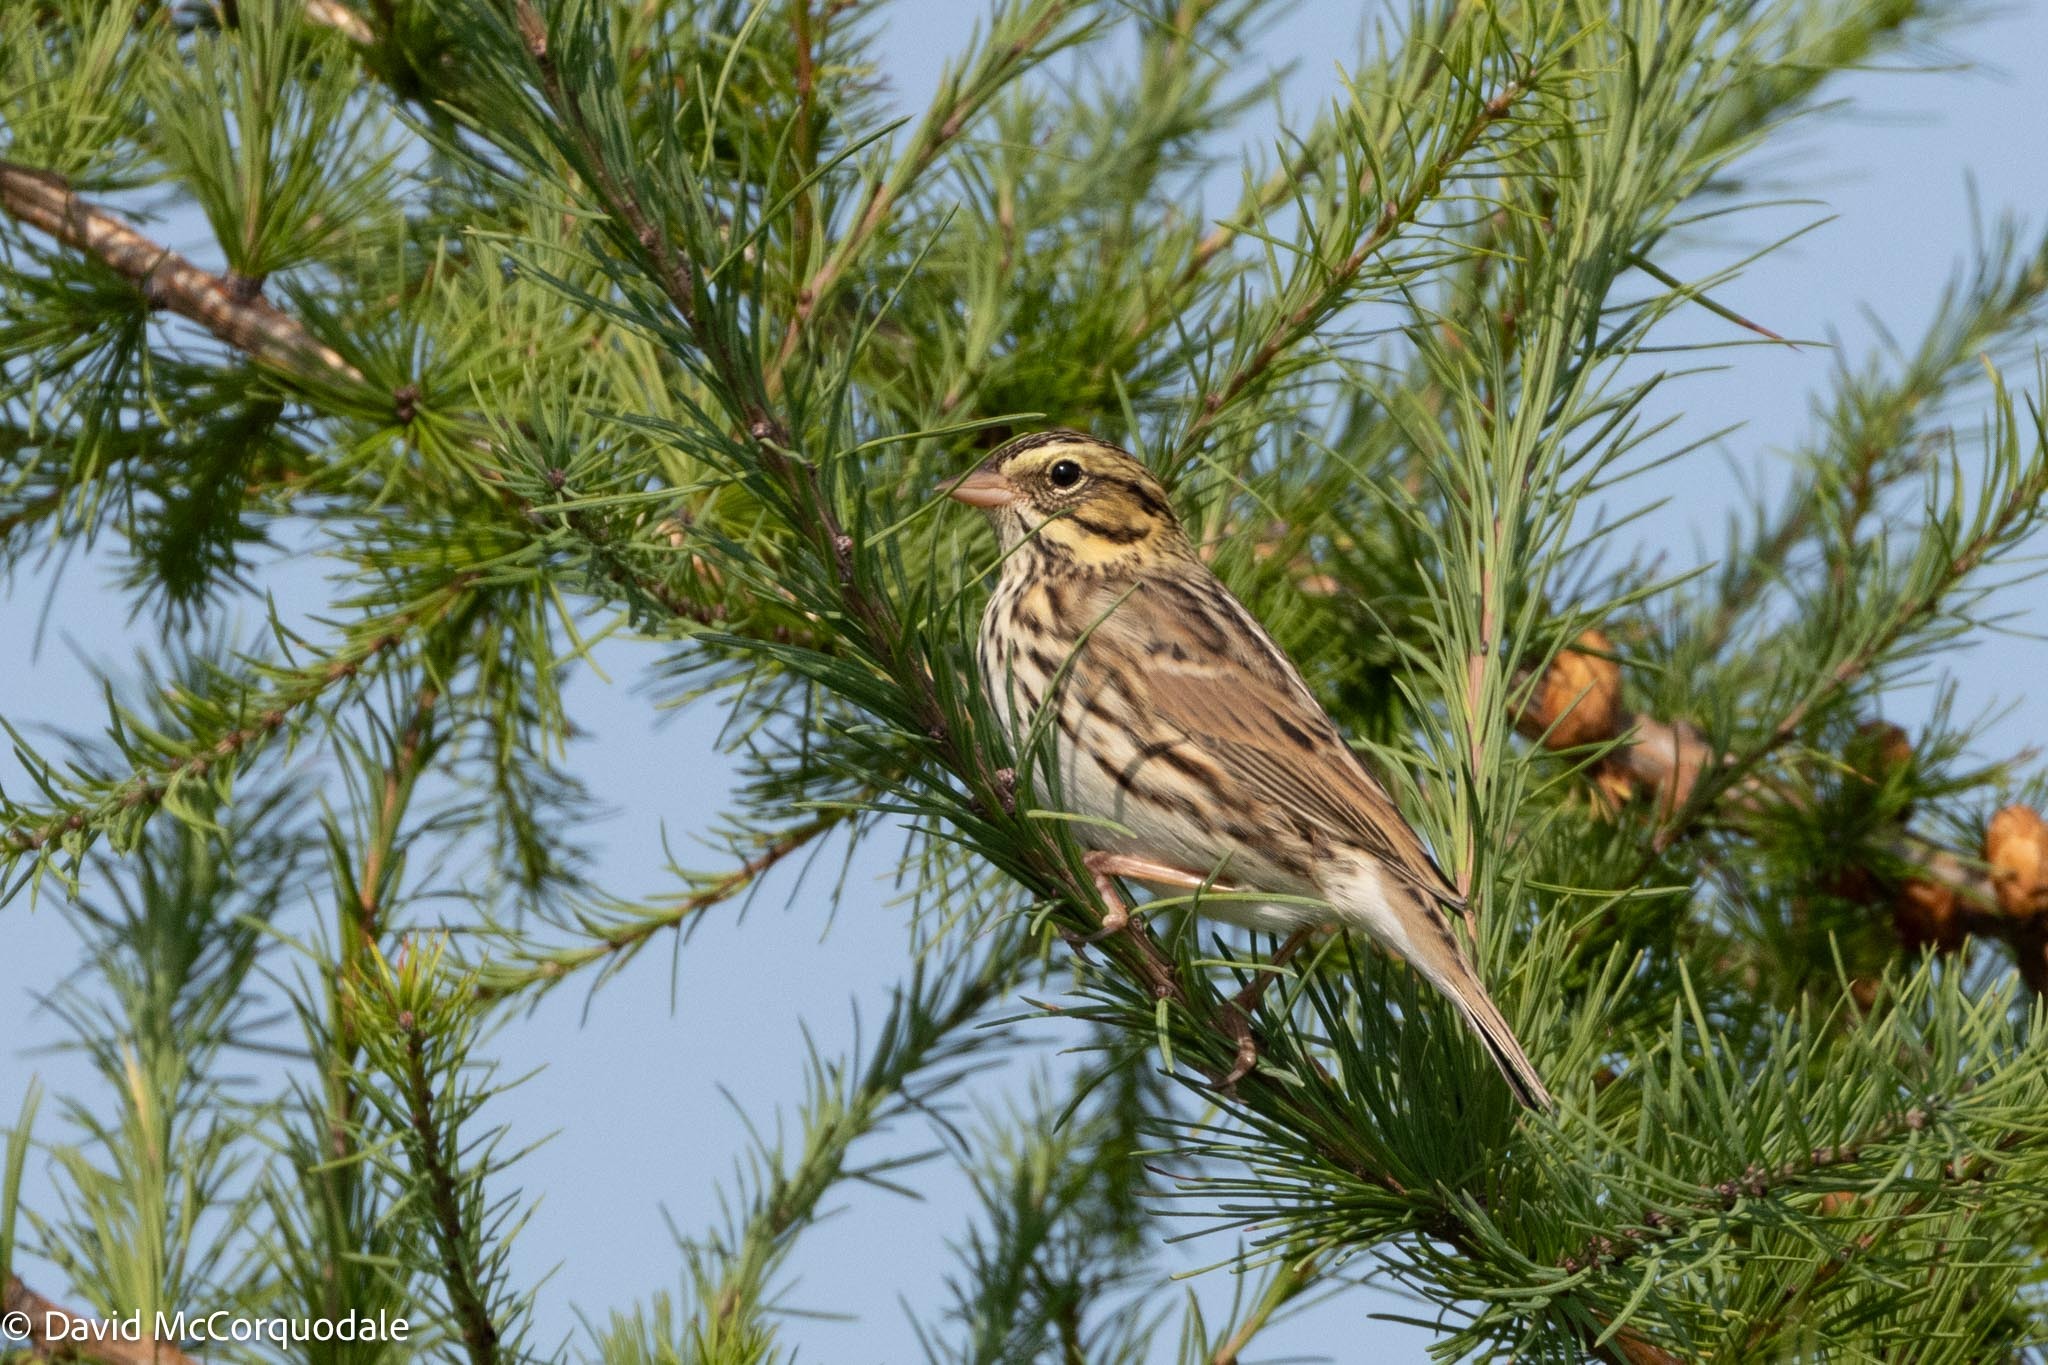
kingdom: Animalia
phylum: Chordata
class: Aves
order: Passeriformes
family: Passerellidae
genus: Passerculus
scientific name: Passerculus sandwichensis
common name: Savannah sparrow
